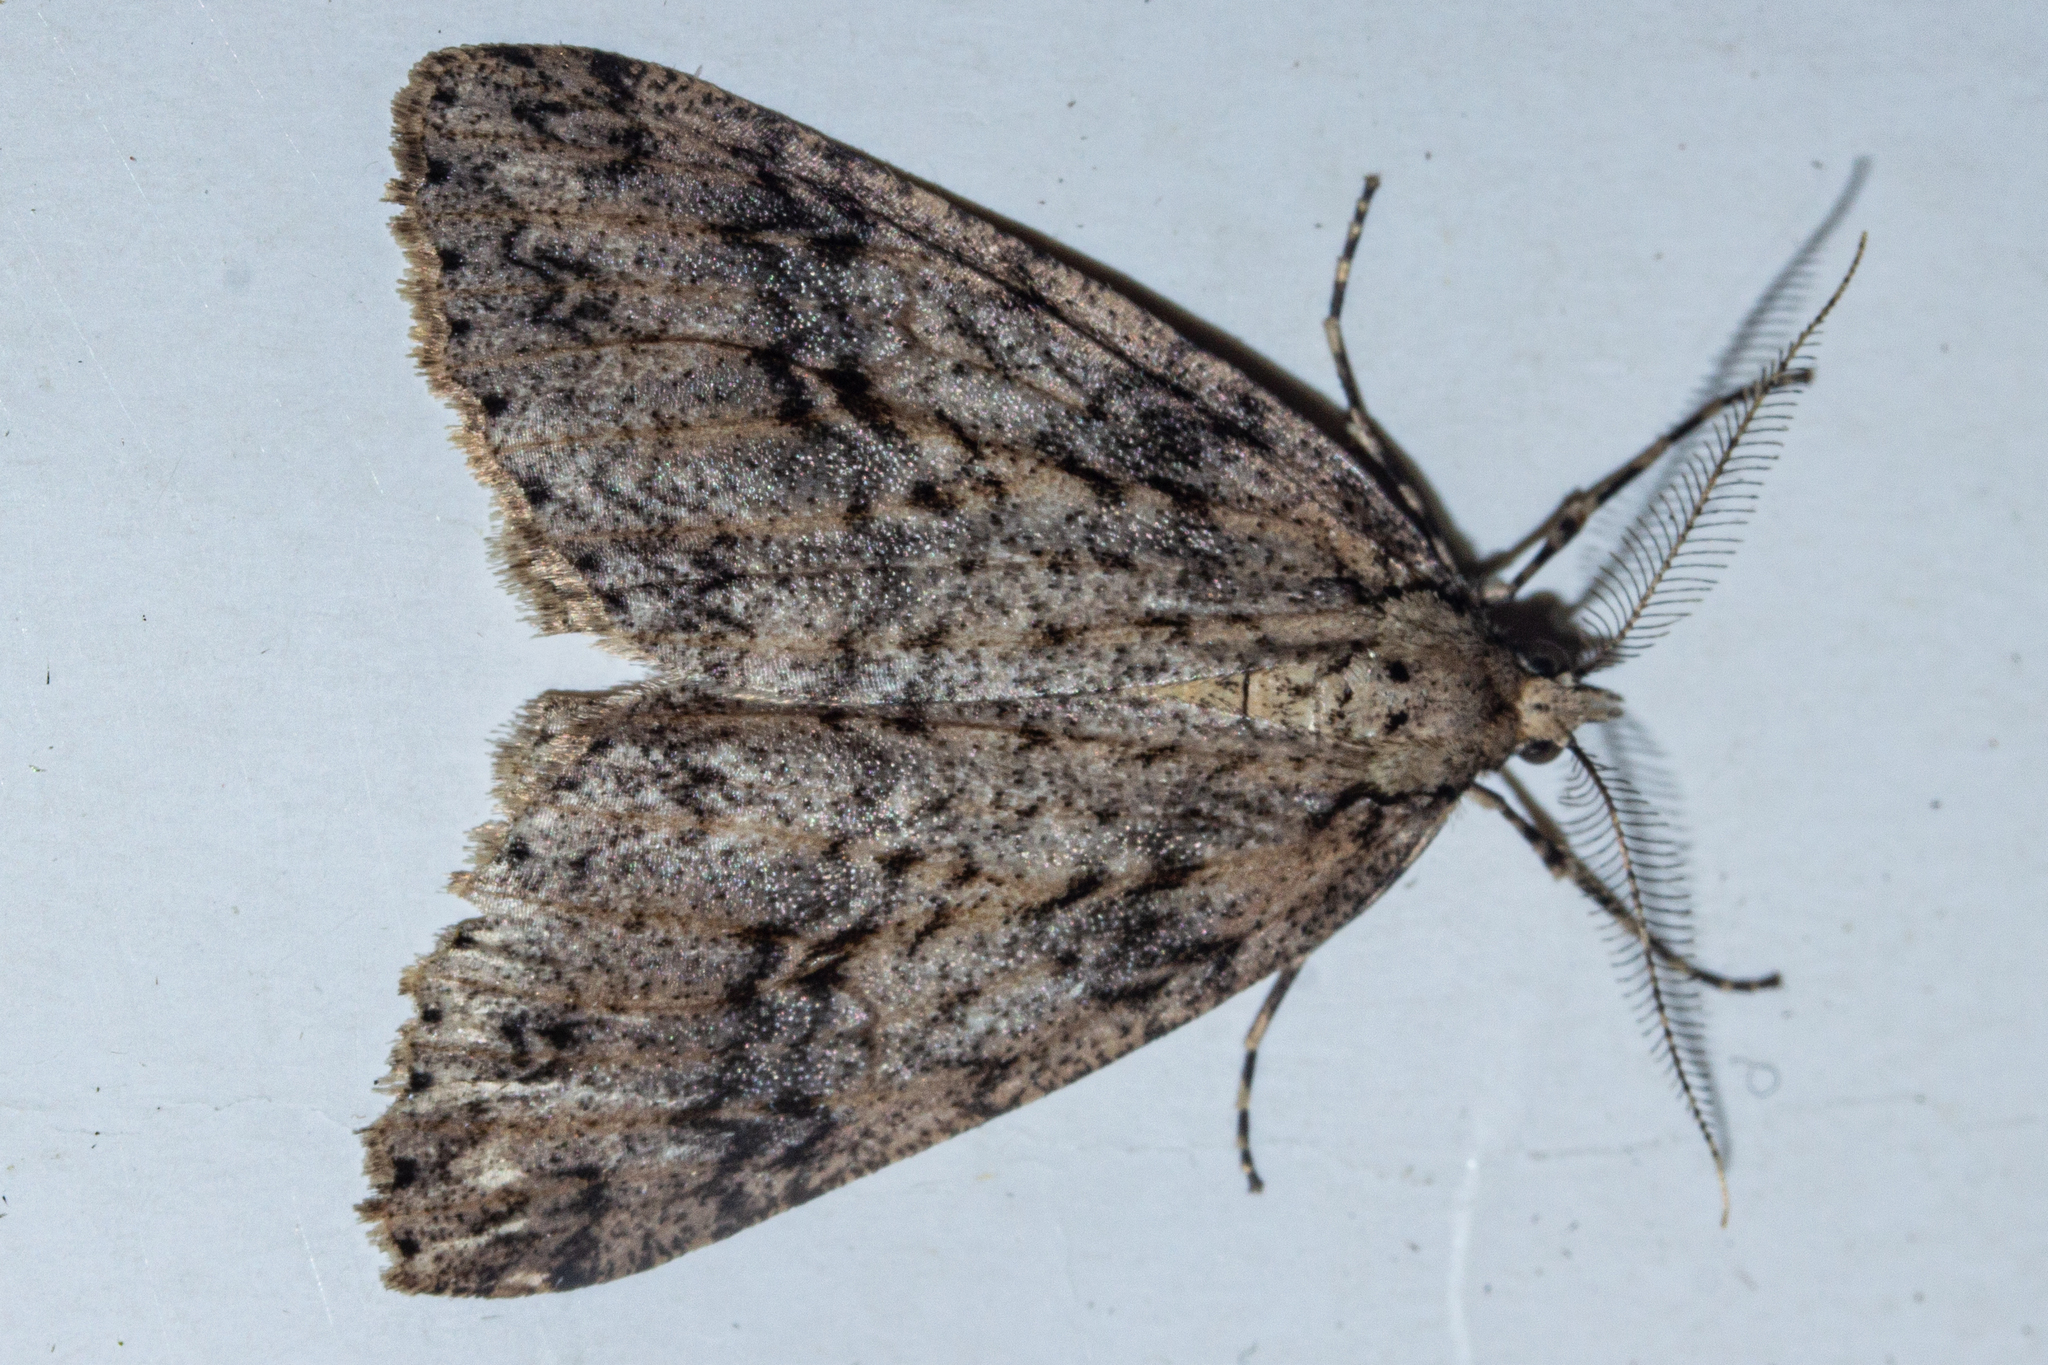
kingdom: Animalia
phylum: Arthropoda
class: Insecta
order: Lepidoptera
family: Geometridae
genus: Pseudocoremia
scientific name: Pseudocoremia rudisata
